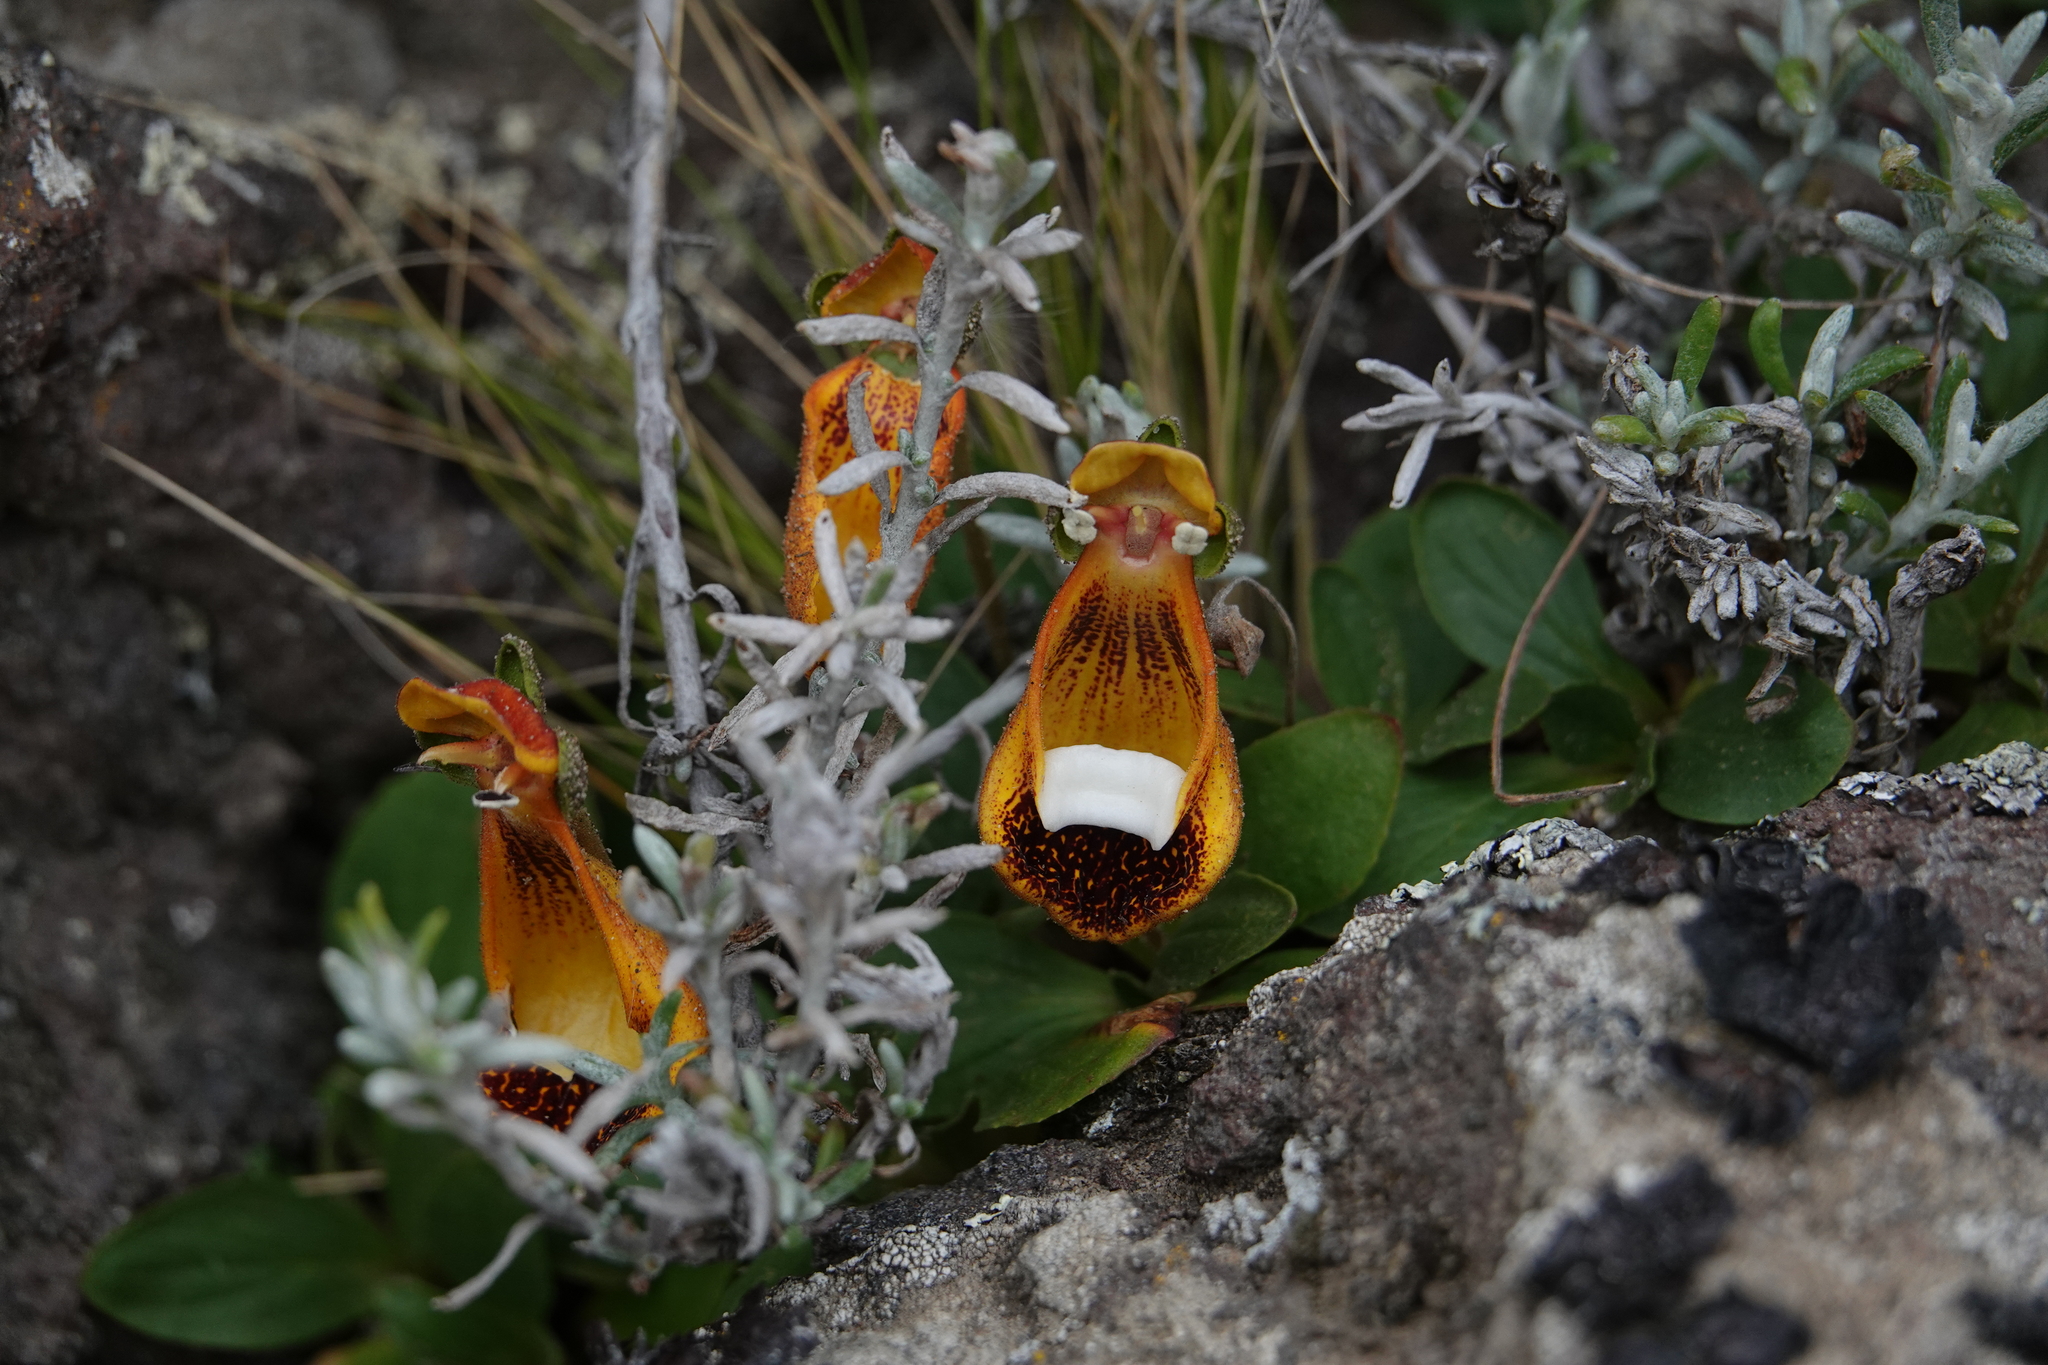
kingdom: Plantae
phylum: Tracheophyta
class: Magnoliopsida
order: Lamiales
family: Calceolariaceae
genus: Calceolaria
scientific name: Calceolaria uniflora
